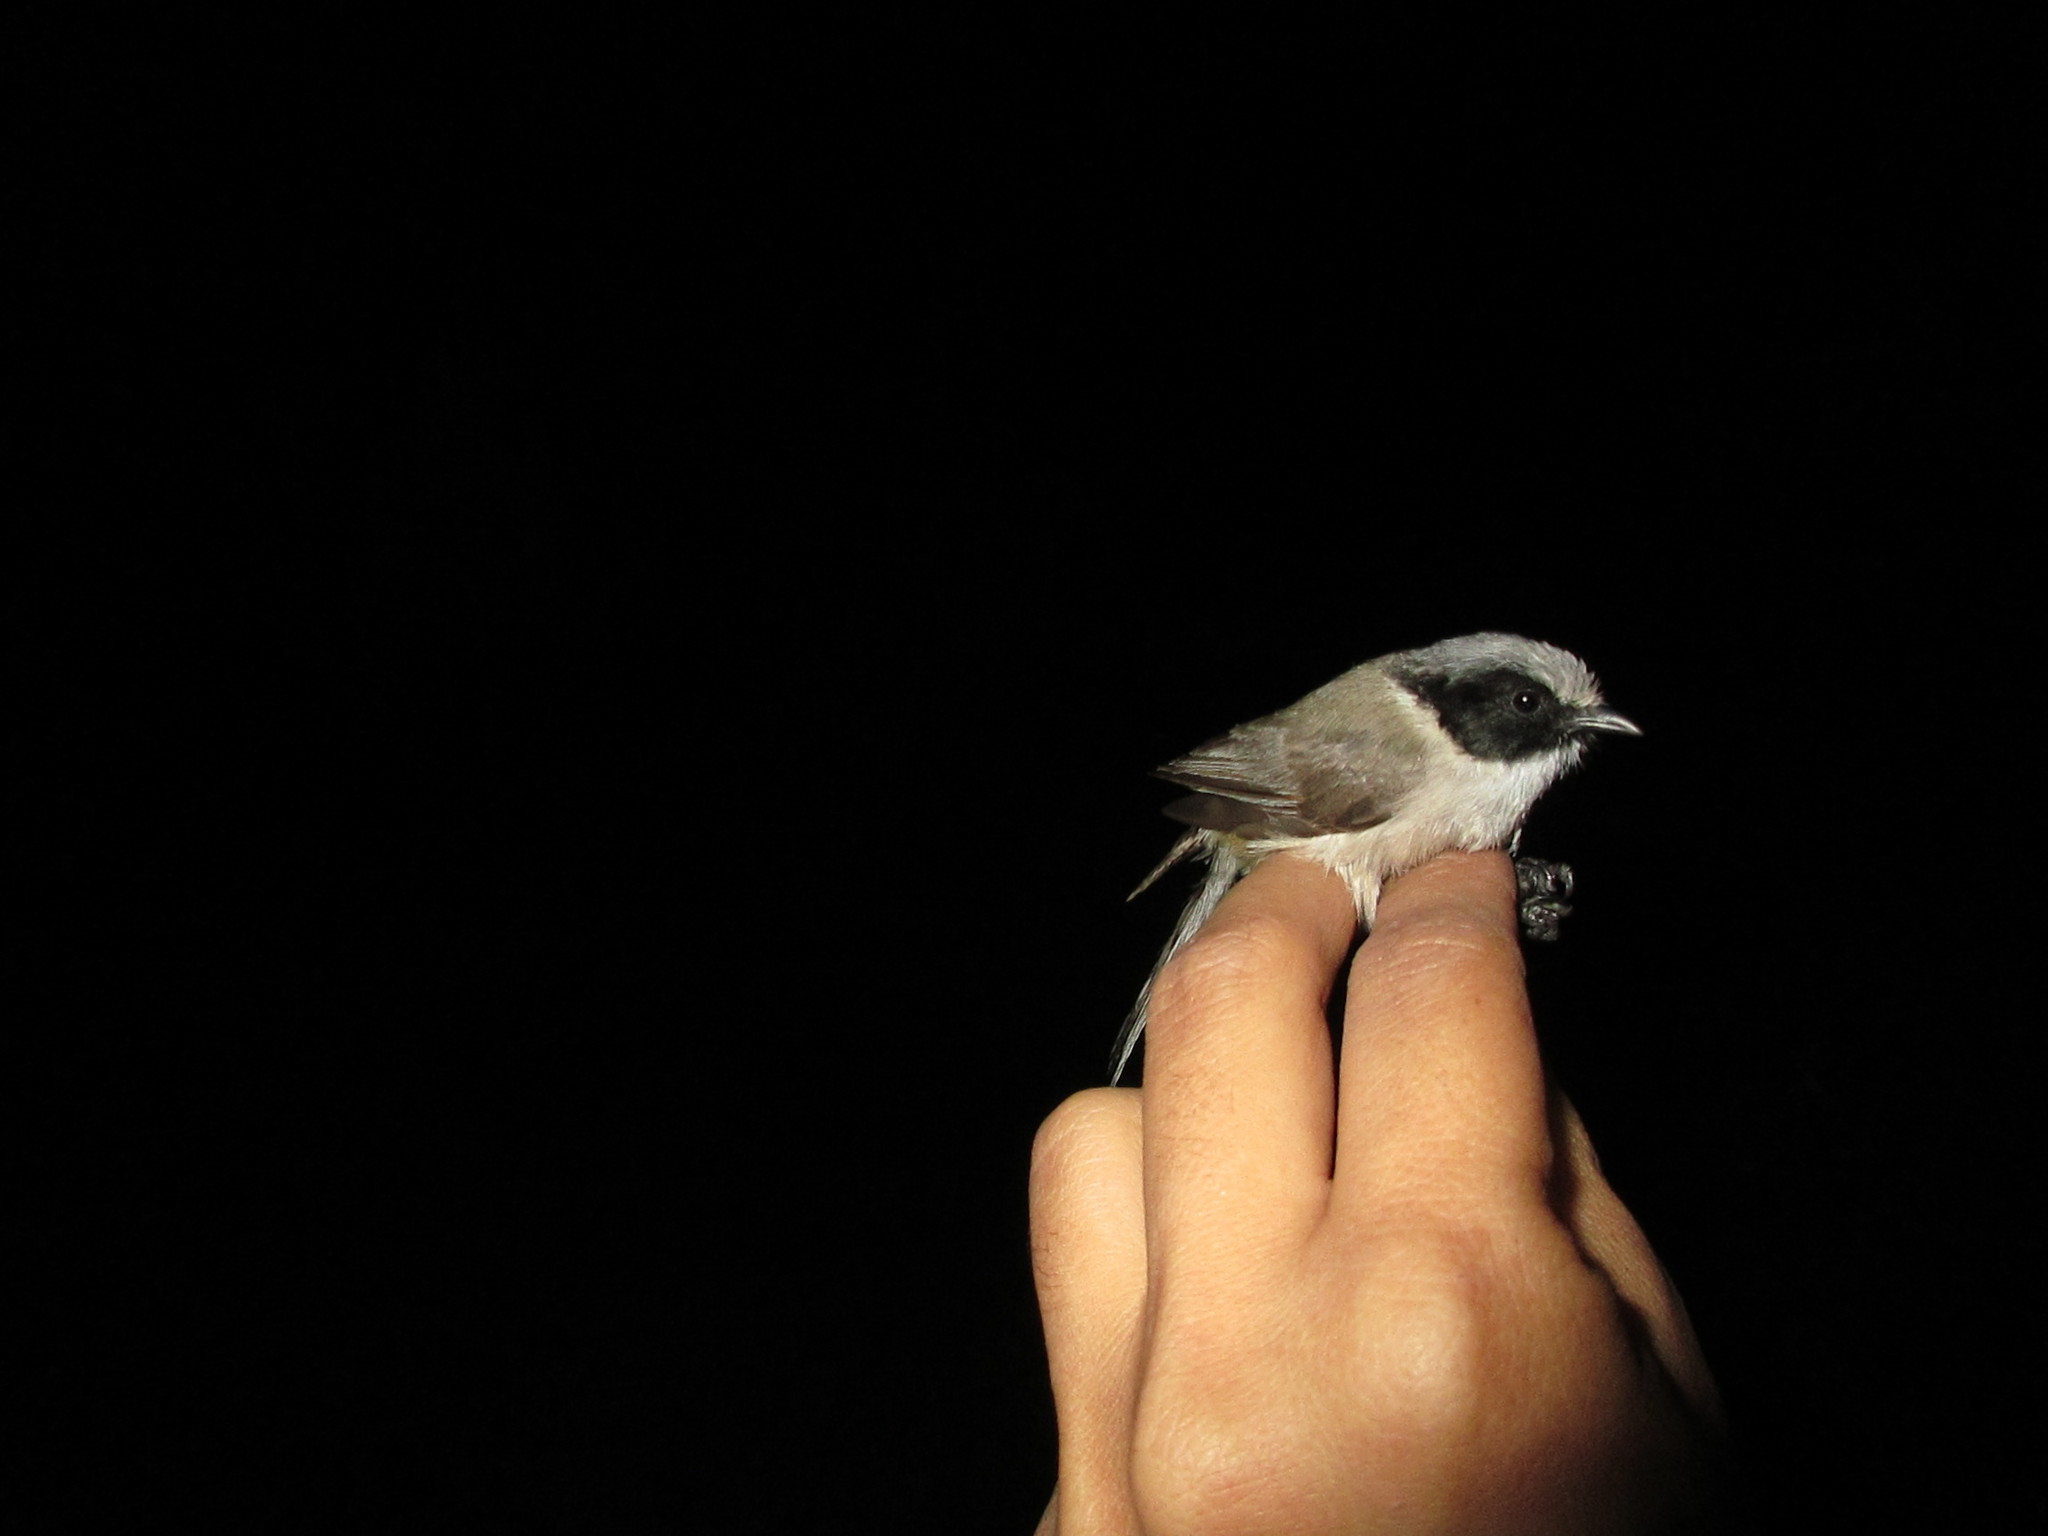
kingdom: Animalia
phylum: Chordata
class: Aves
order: Passeriformes
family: Aegithalidae
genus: Psaltriparus
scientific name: Psaltriparus minimus
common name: American bushtit
